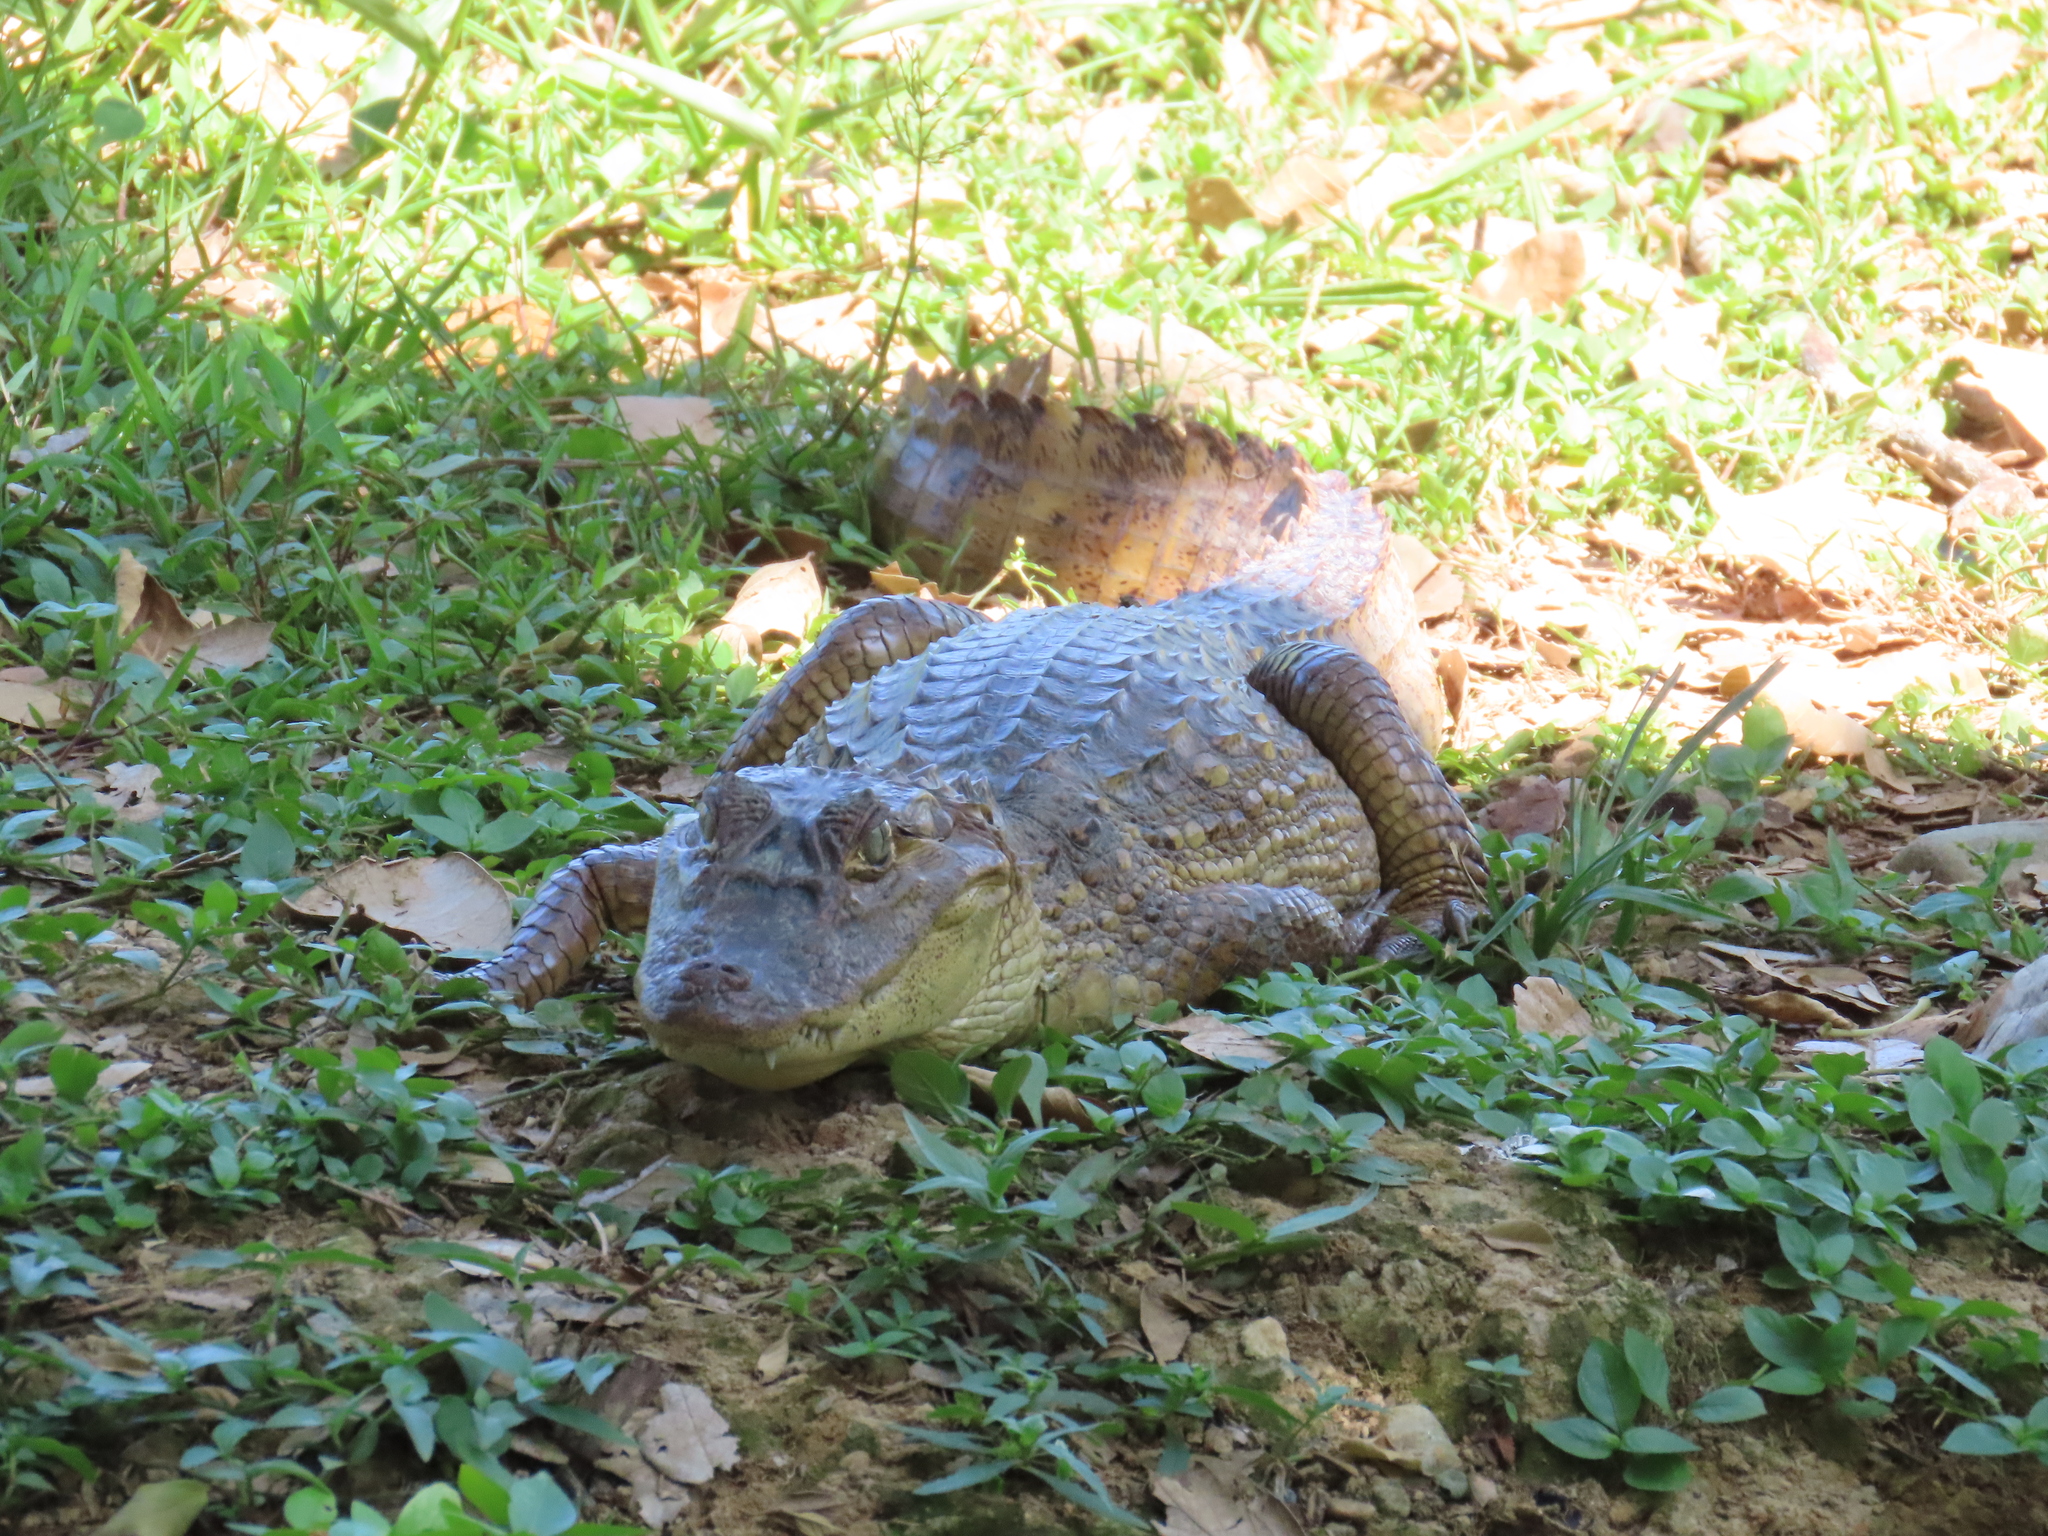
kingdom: Animalia
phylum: Chordata
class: Crocodylia
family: Alligatoridae
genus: Caiman
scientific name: Caiman crocodilus
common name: Common caiman
